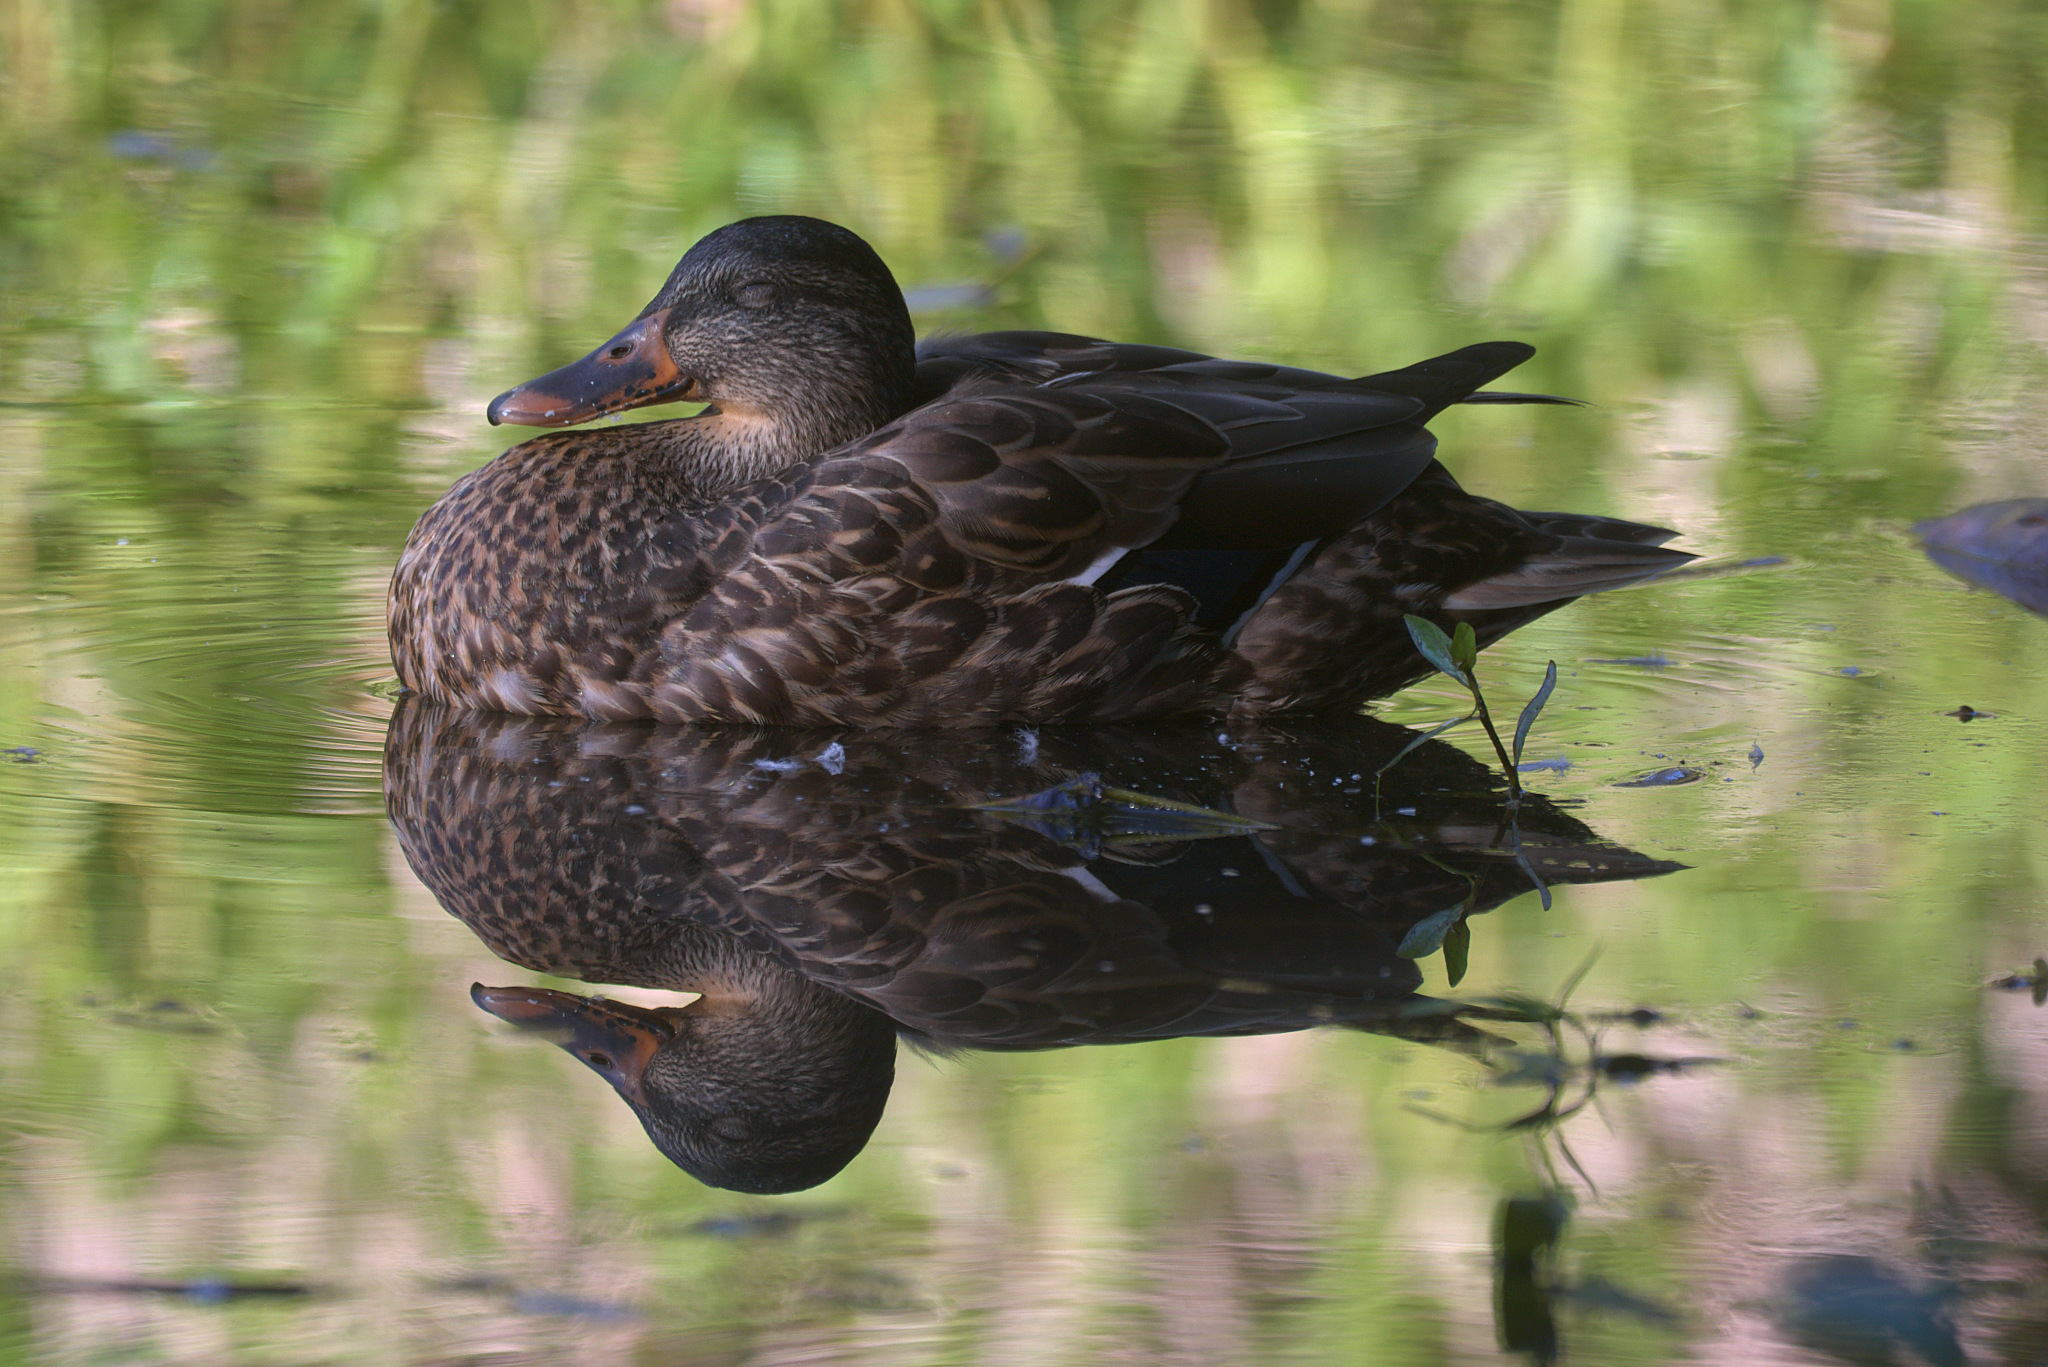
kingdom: Animalia
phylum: Chordata
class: Aves
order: Anseriformes
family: Anatidae
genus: Anas
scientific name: Anas platyrhynchos
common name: Mallard
